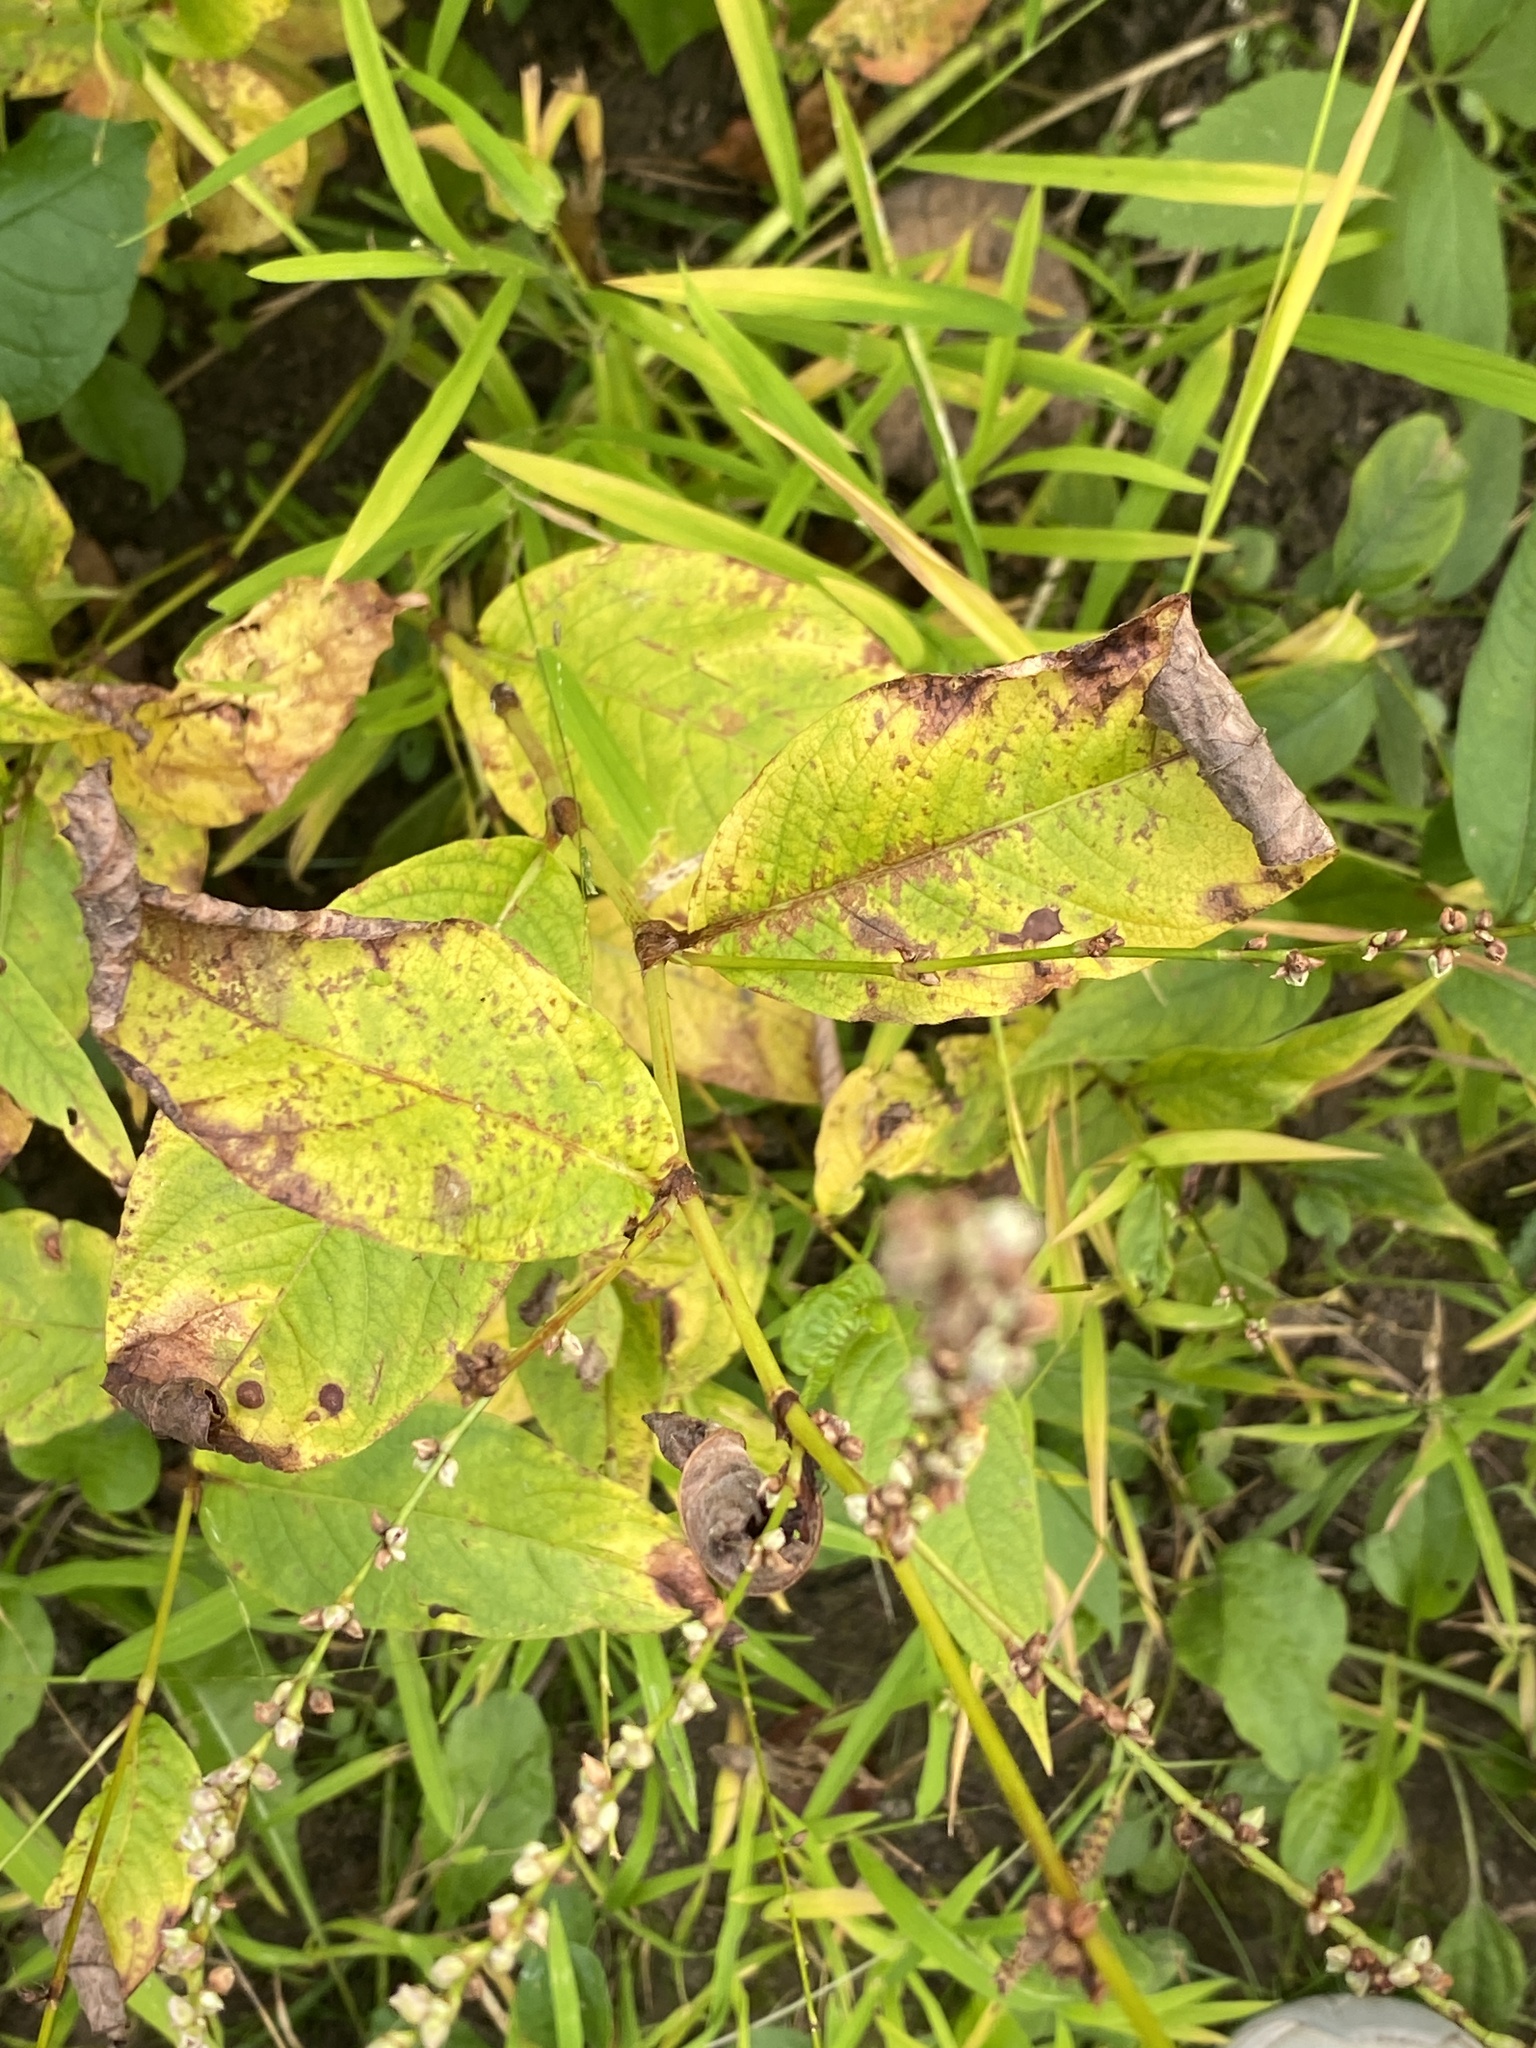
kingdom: Plantae
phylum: Tracheophyta
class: Magnoliopsida
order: Caryophyllales
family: Polygonaceae
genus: Persicaria
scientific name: Persicaria virginiana
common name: Jumpseed
